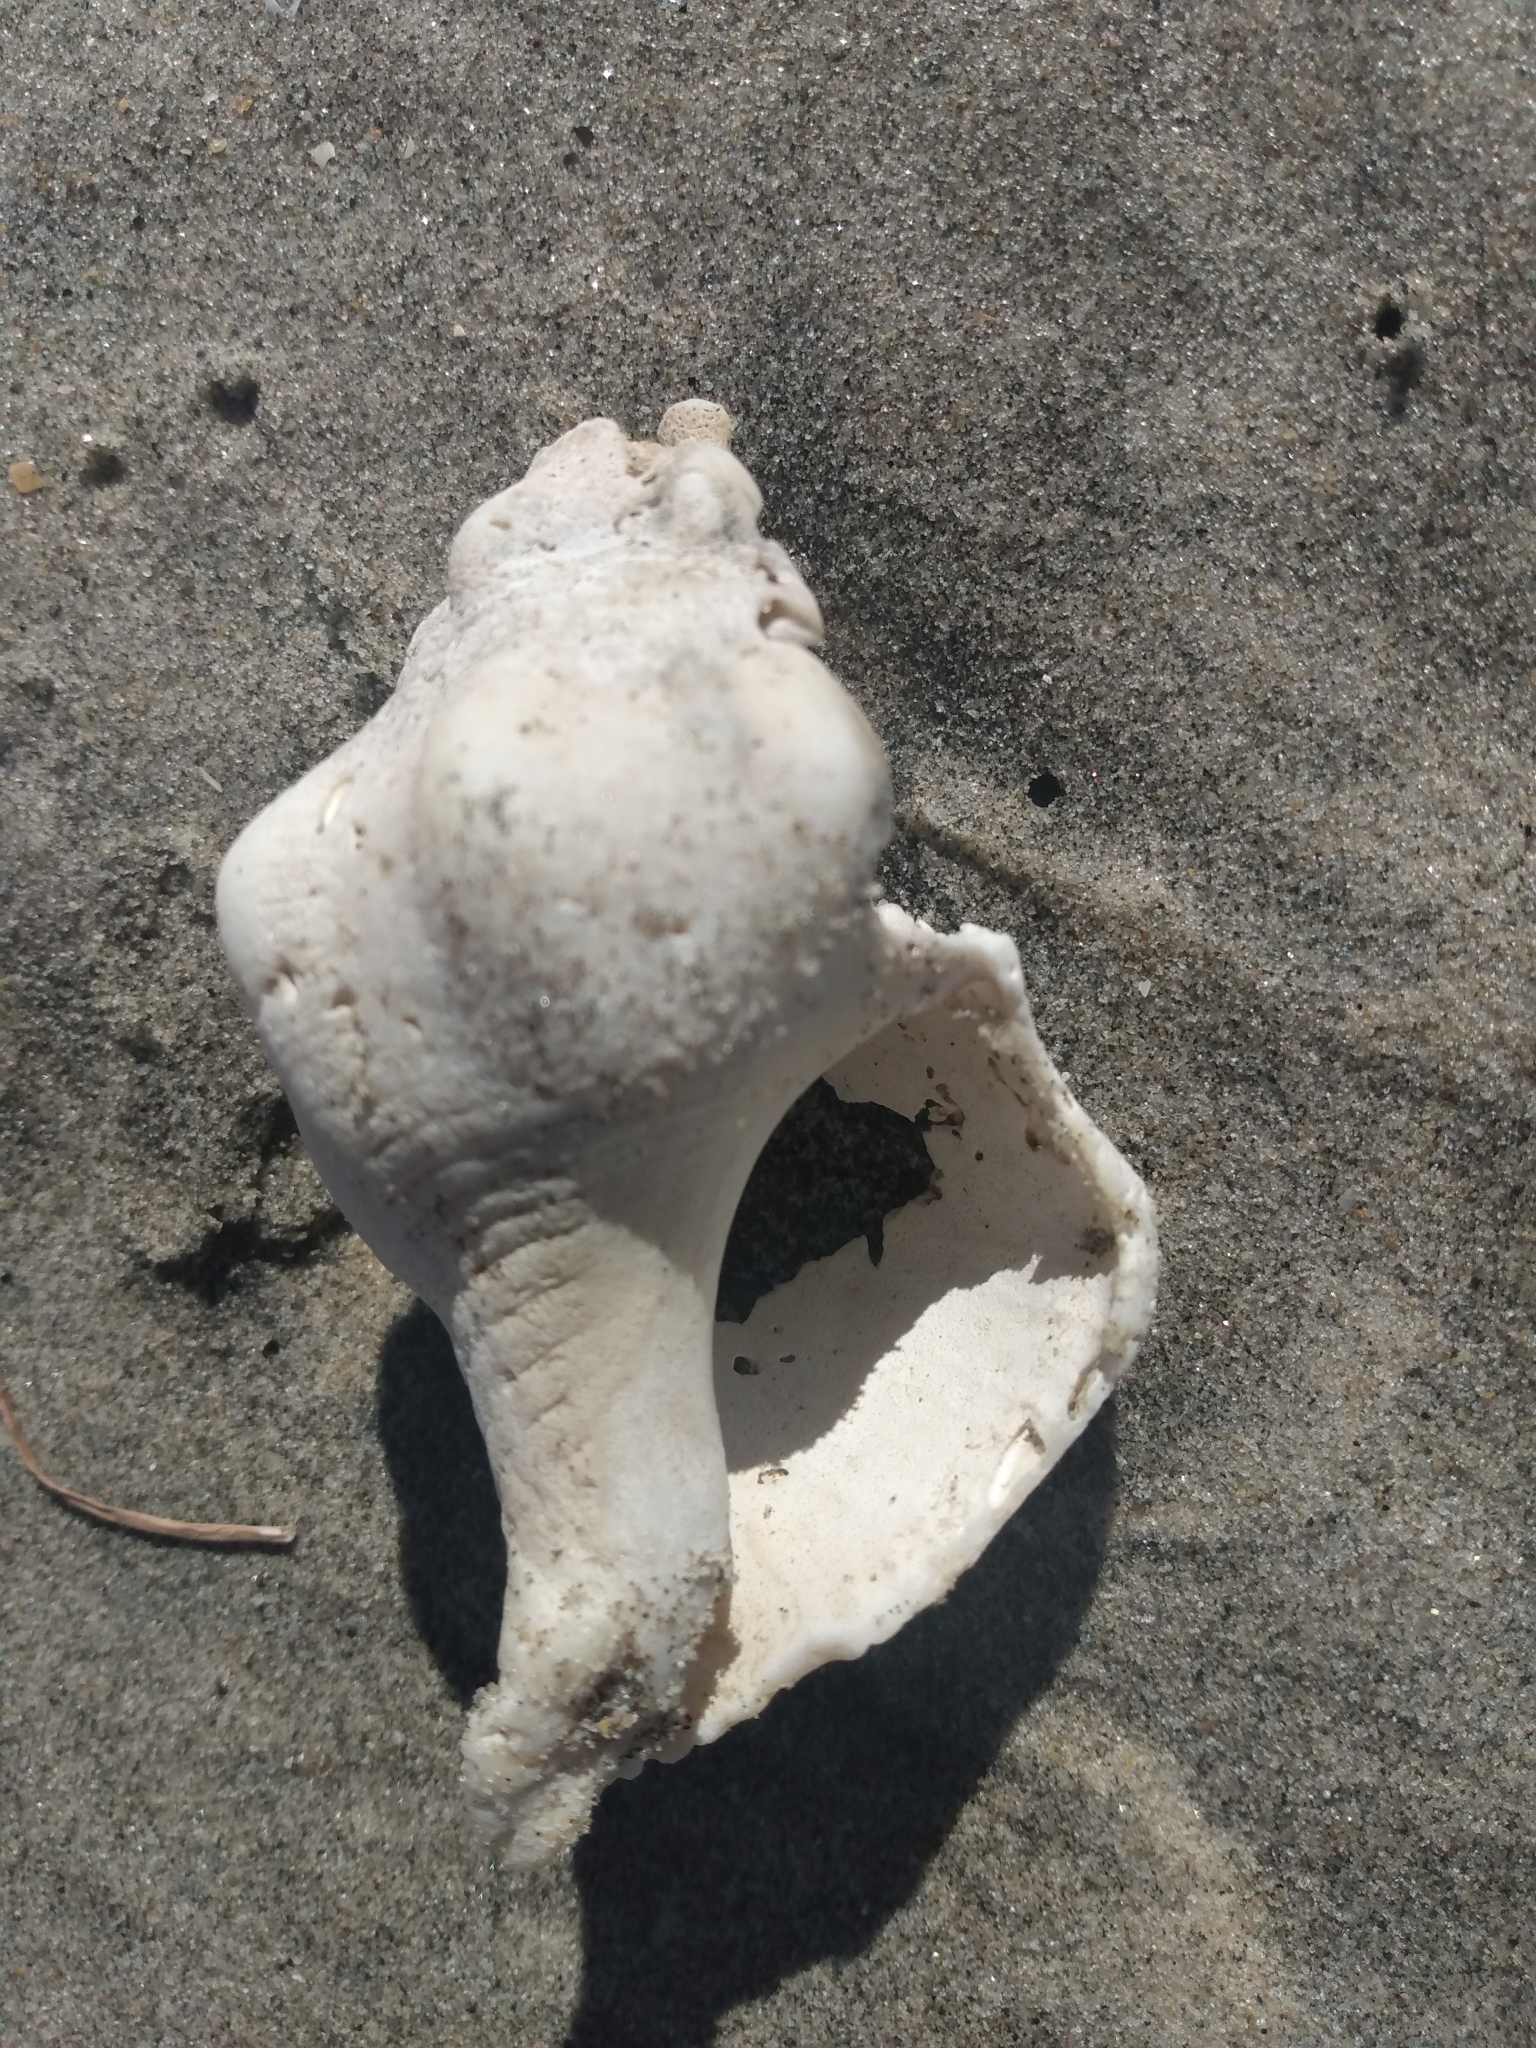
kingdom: Animalia
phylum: Mollusca
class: Gastropoda
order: Neogastropoda
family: Austrosiphonidae
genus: Kelletia
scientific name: Kelletia kelletii
